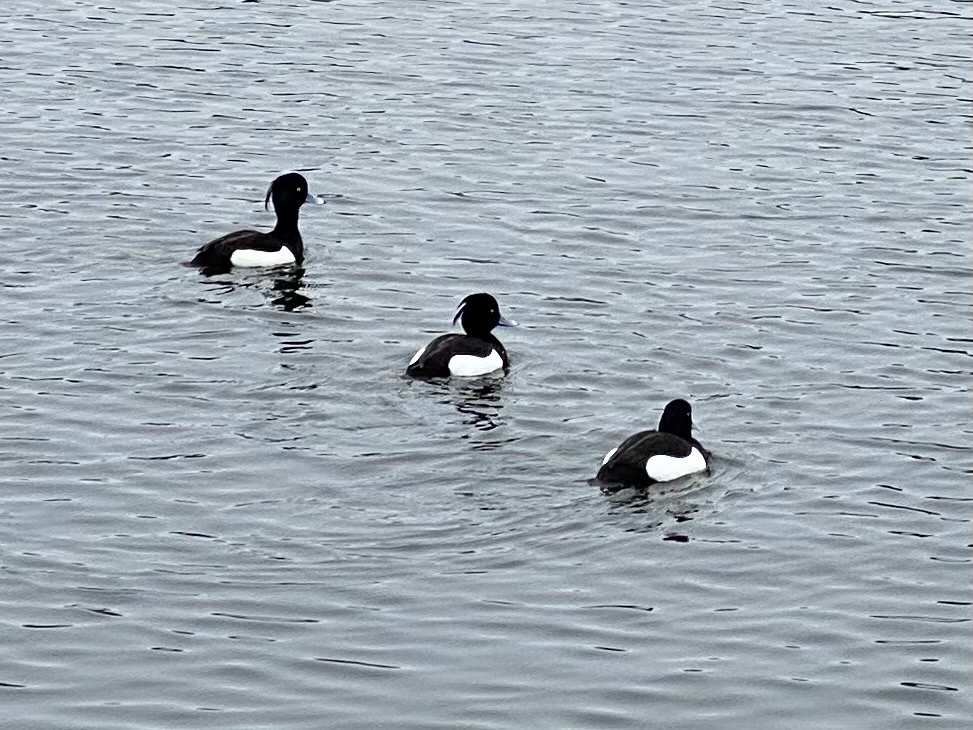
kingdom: Animalia
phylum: Chordata
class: Aves
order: Anseriformes
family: Anatidae
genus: Aythya
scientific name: Aythya fuligula
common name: Tufted duck
